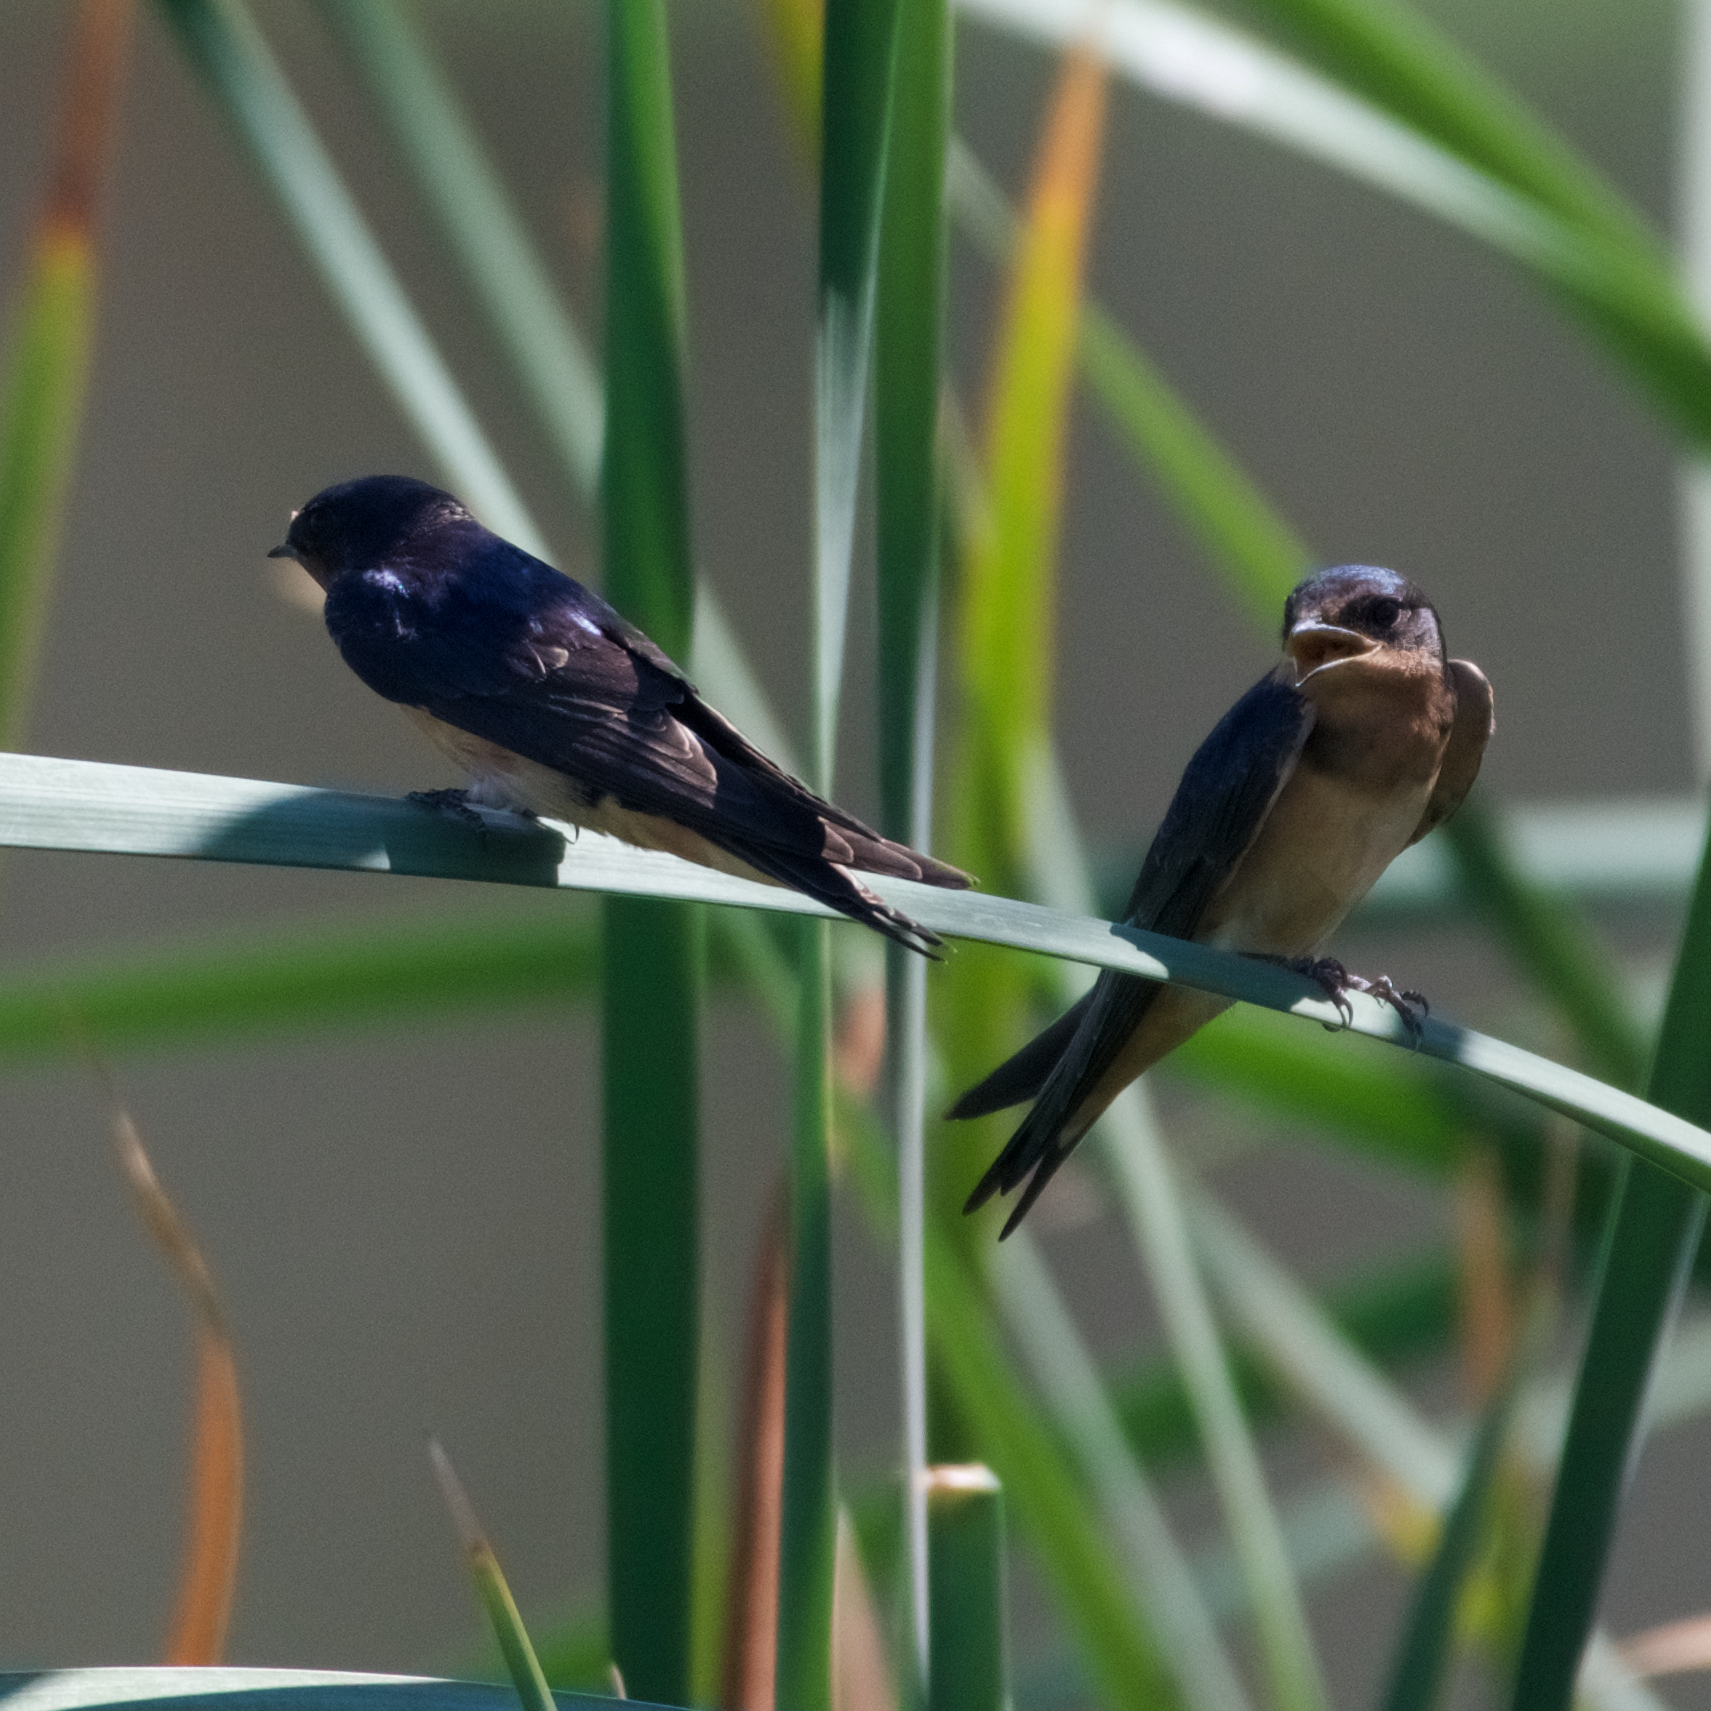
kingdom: Animalia
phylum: Chordata
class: Aves
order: Passeriformes
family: Hirundinidae
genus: Hirundo
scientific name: Hirundo rustica
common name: Barn swallow
